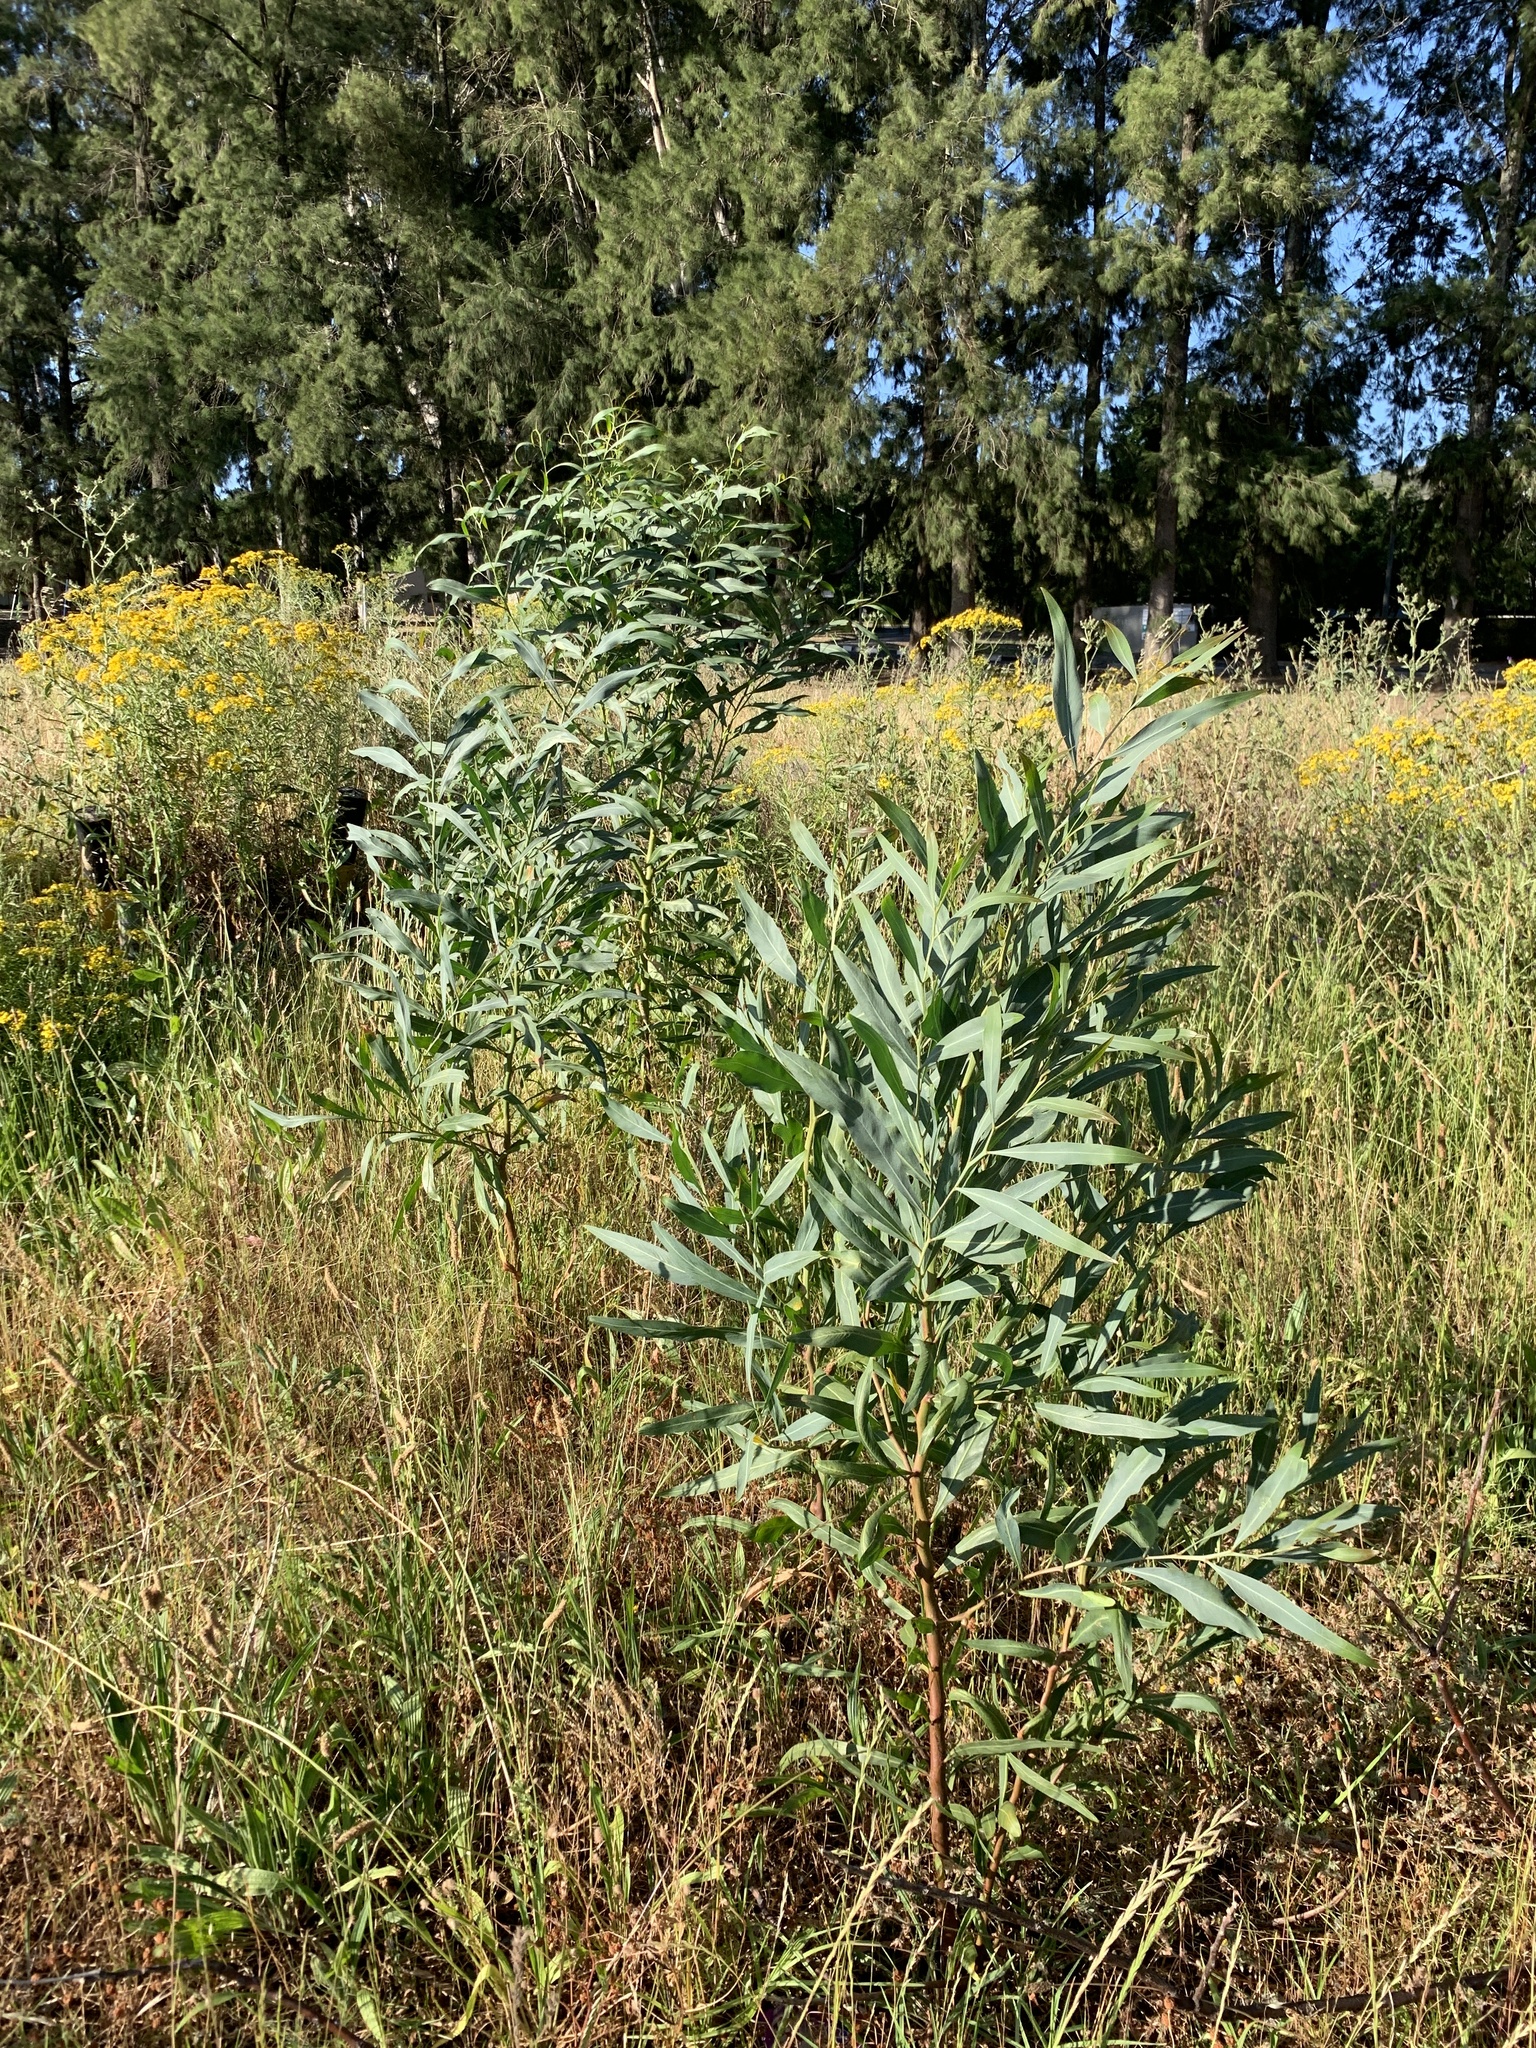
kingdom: Plantae
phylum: Tracheophyta
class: Magnoliopsida
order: Fabales
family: Fabaceae
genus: Acacia
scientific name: Acacia saligna
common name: Orange wattle
